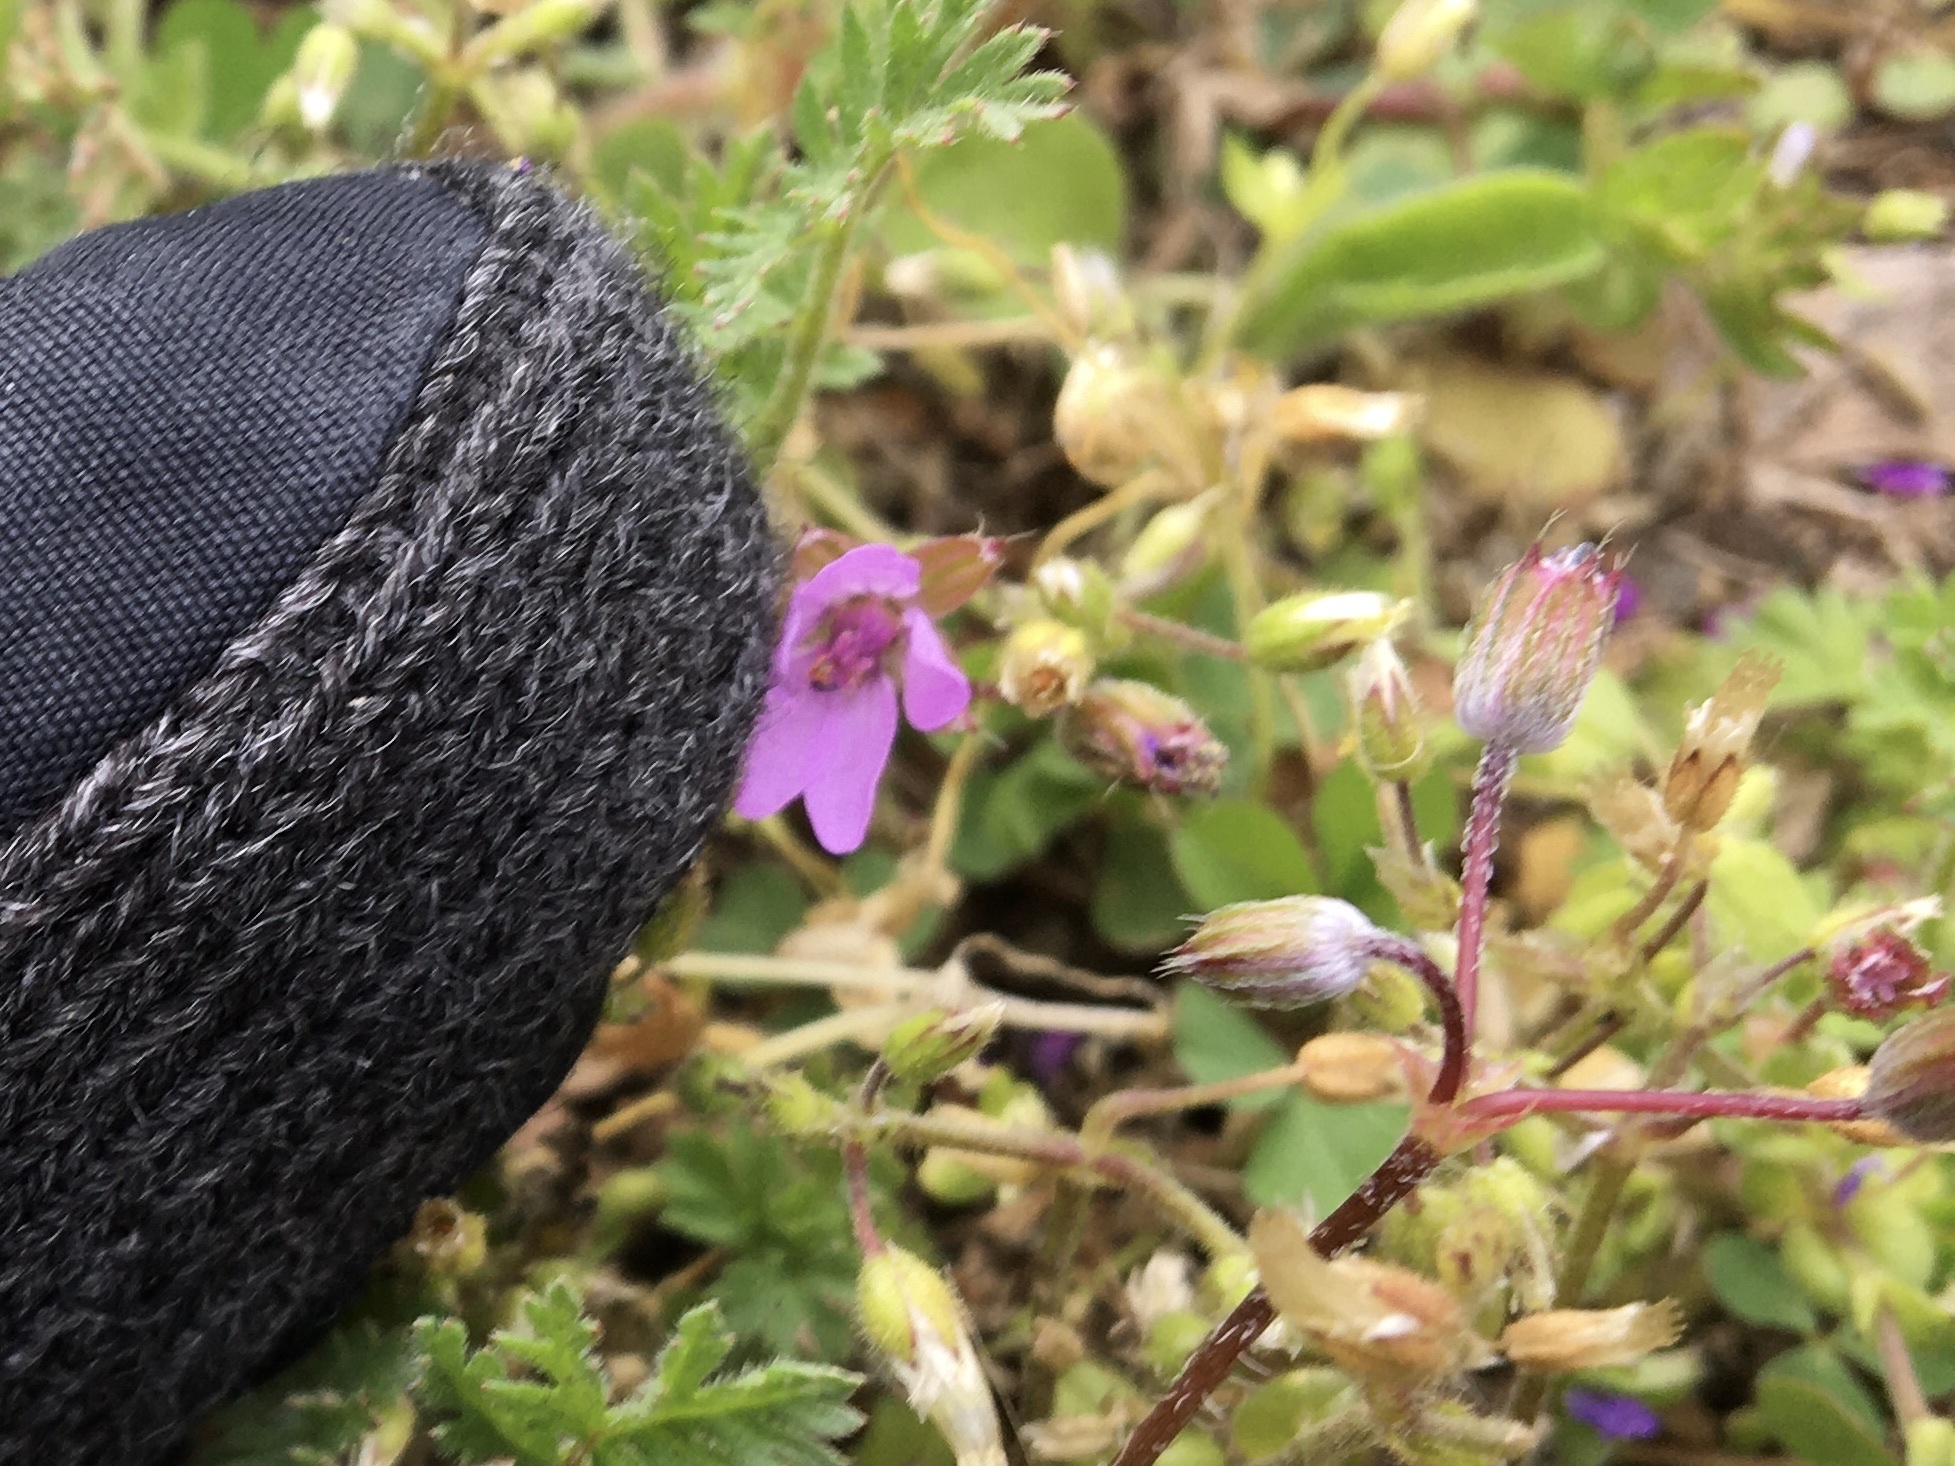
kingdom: Plantae
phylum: Tracheophyta
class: Magnoliopsida
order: Geraniales
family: Geraniaceae
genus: Erodium
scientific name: Erodium cicutarium
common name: Common stork's-bill
